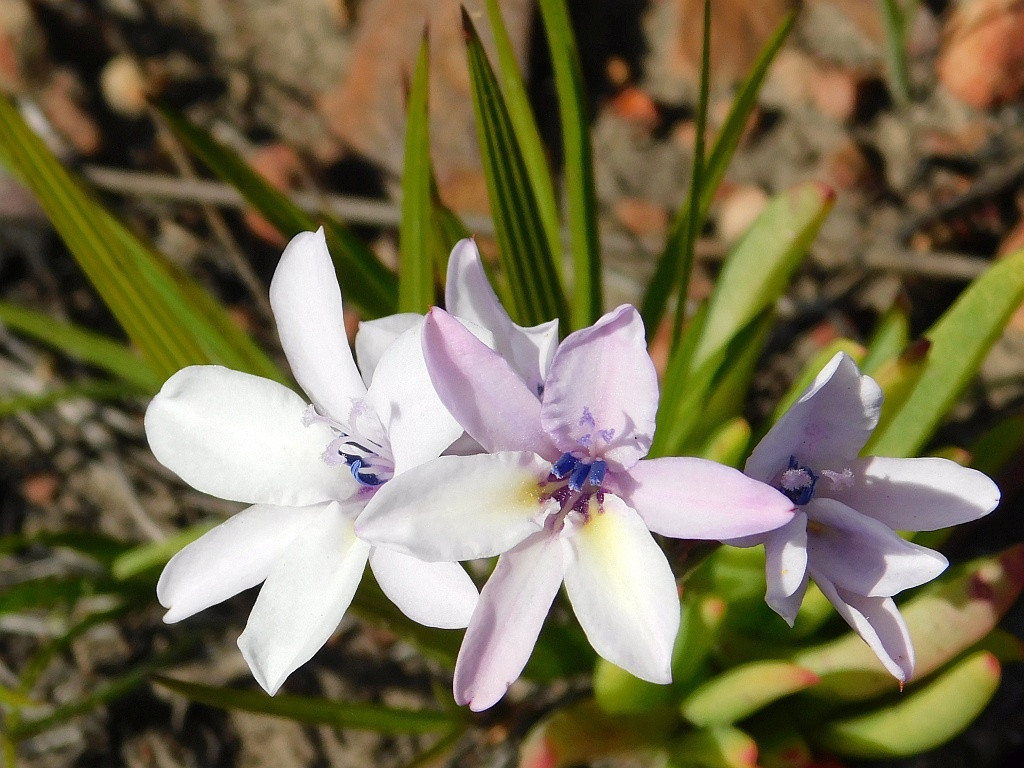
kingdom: Plantae
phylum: Tracheophyta
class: Liliopsida
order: Asparagales
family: Iridaceae
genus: Babiana
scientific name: Babiana nervosa
